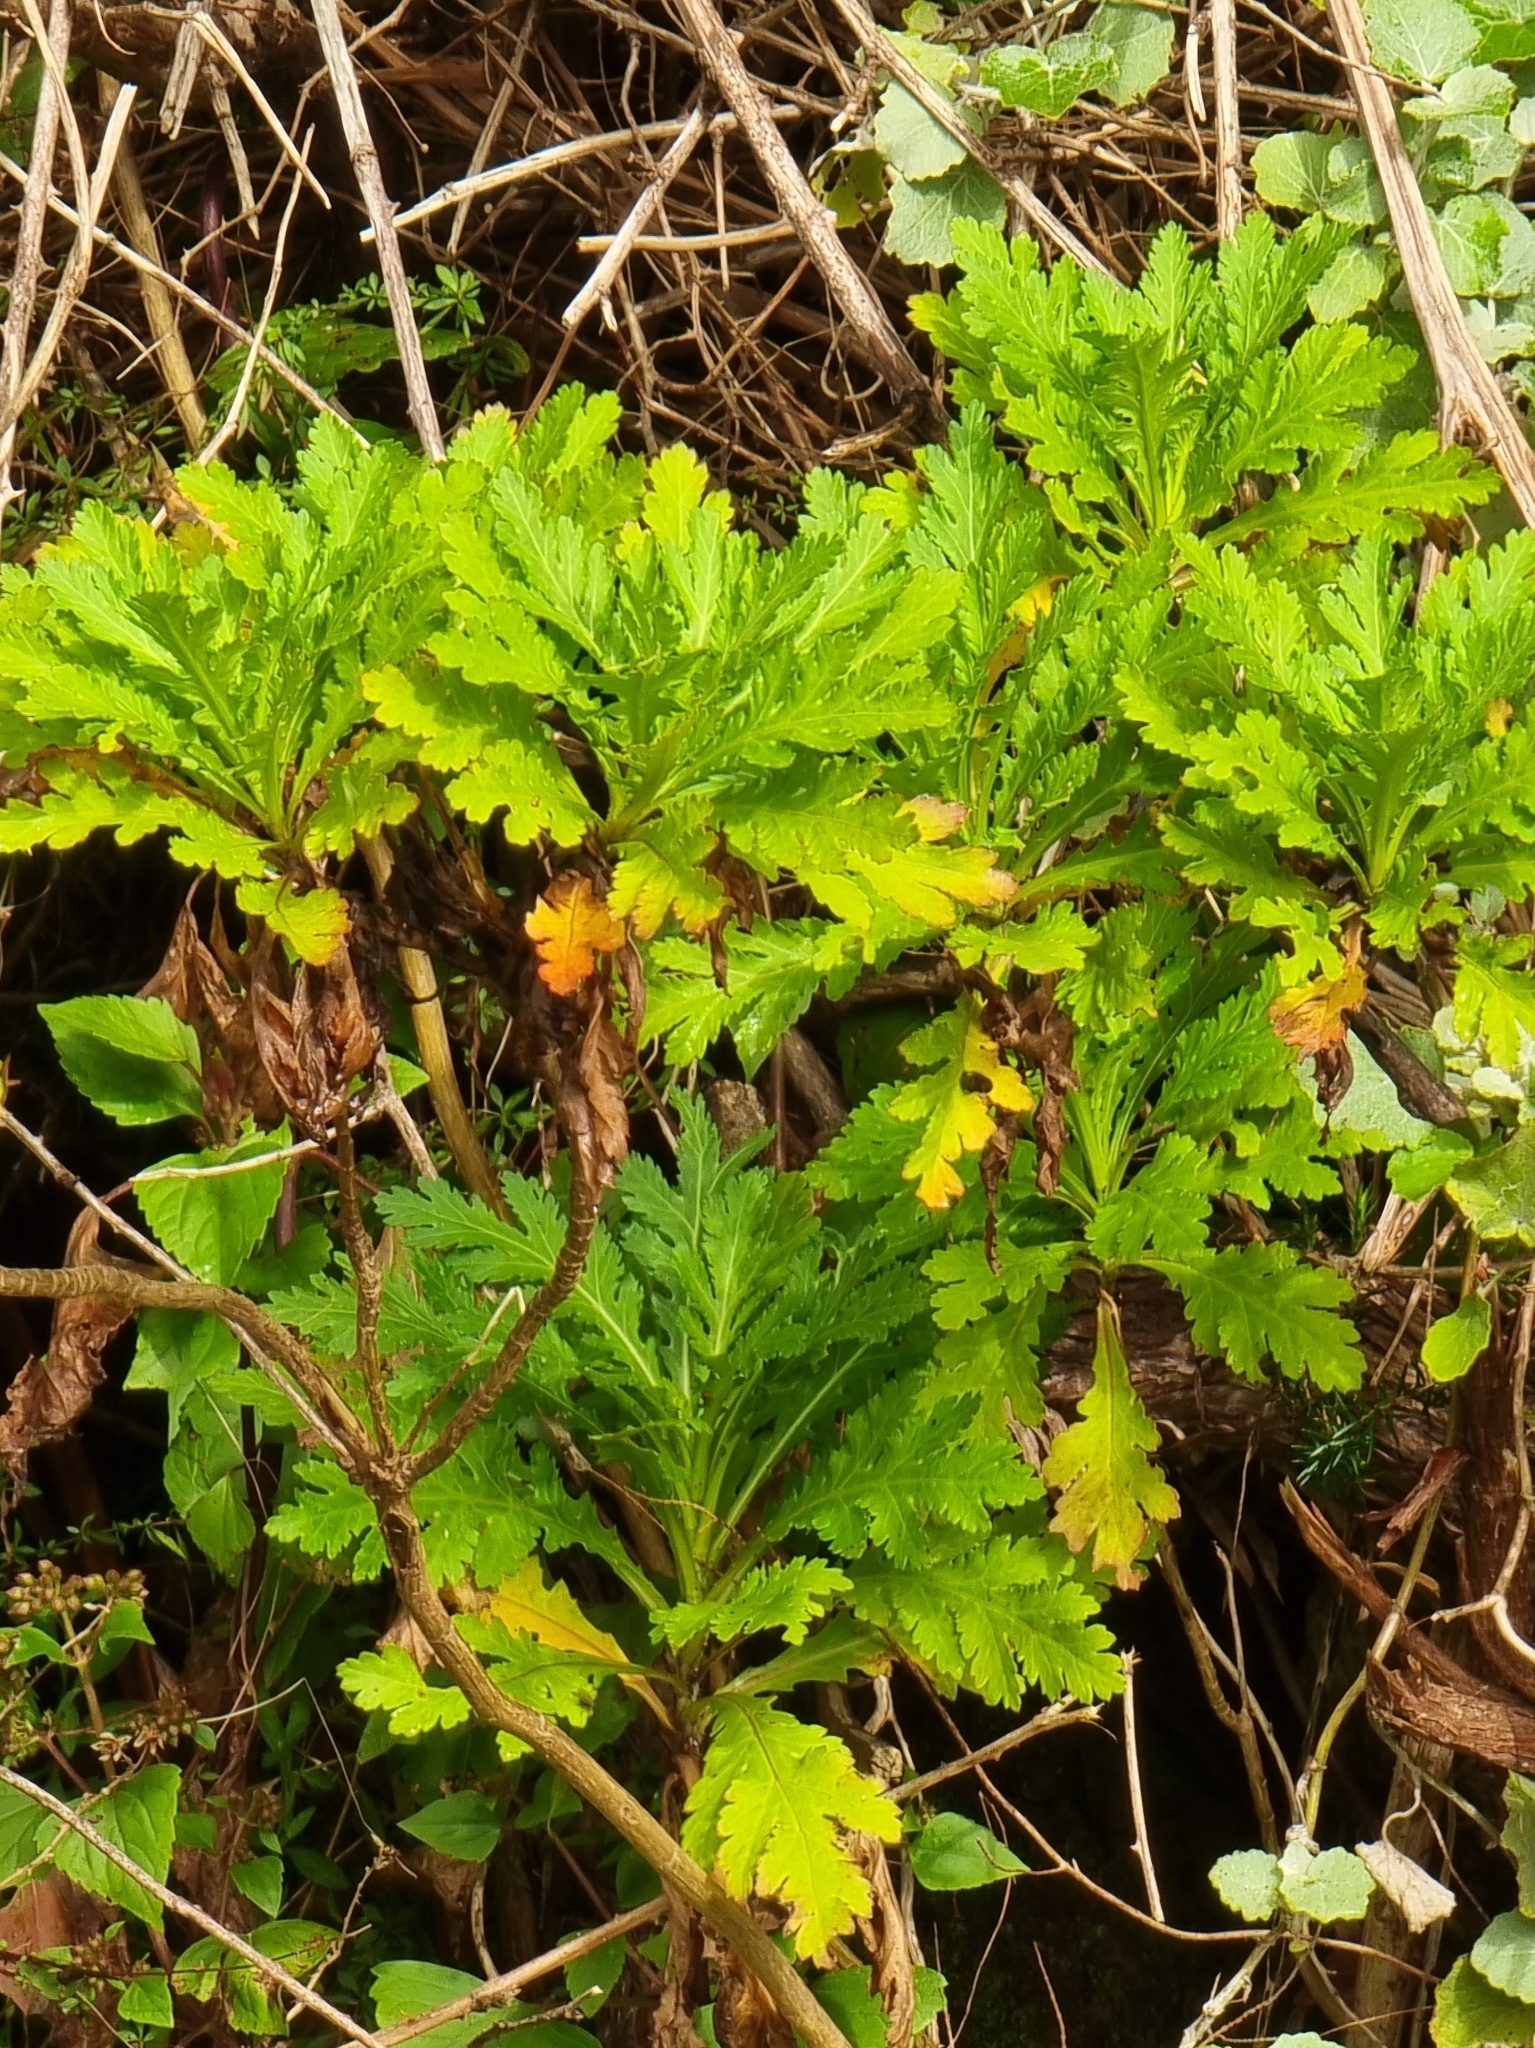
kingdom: Plantae
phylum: Tracheophyta
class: Magnoliopsida
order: Asterales
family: Asteraceae
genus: Argyranthemum
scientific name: Argyranthemum pinnatifidum
